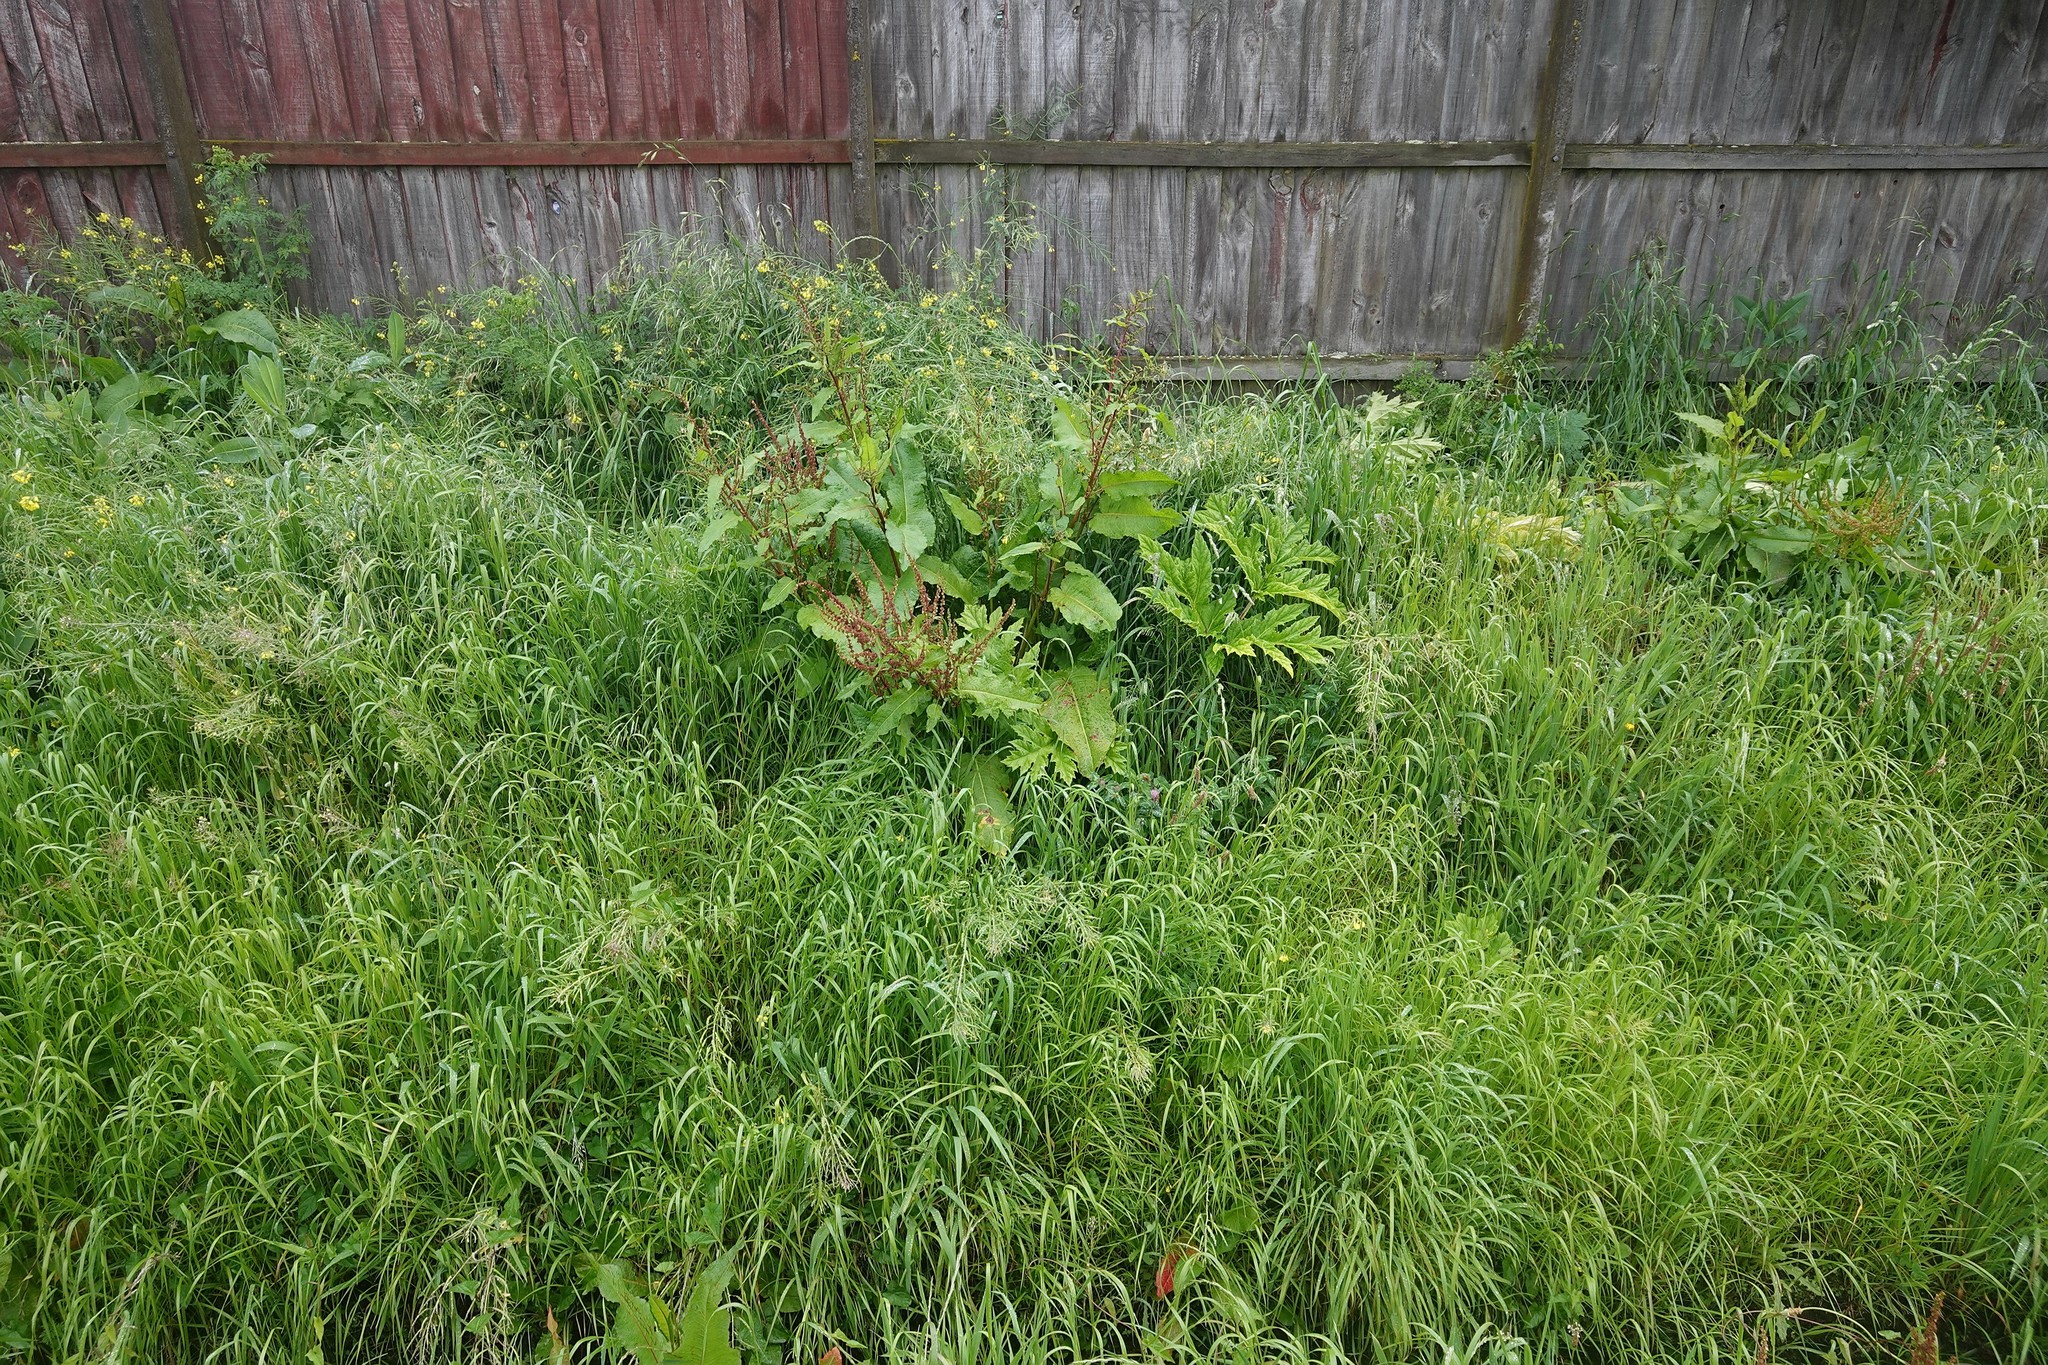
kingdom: Plantae
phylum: Tracheophyta
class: Magnoliopsida
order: Apiales
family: Apiaceae
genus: Heracleum
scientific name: Heracleum mantegazzianum
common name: Giant hogweed
